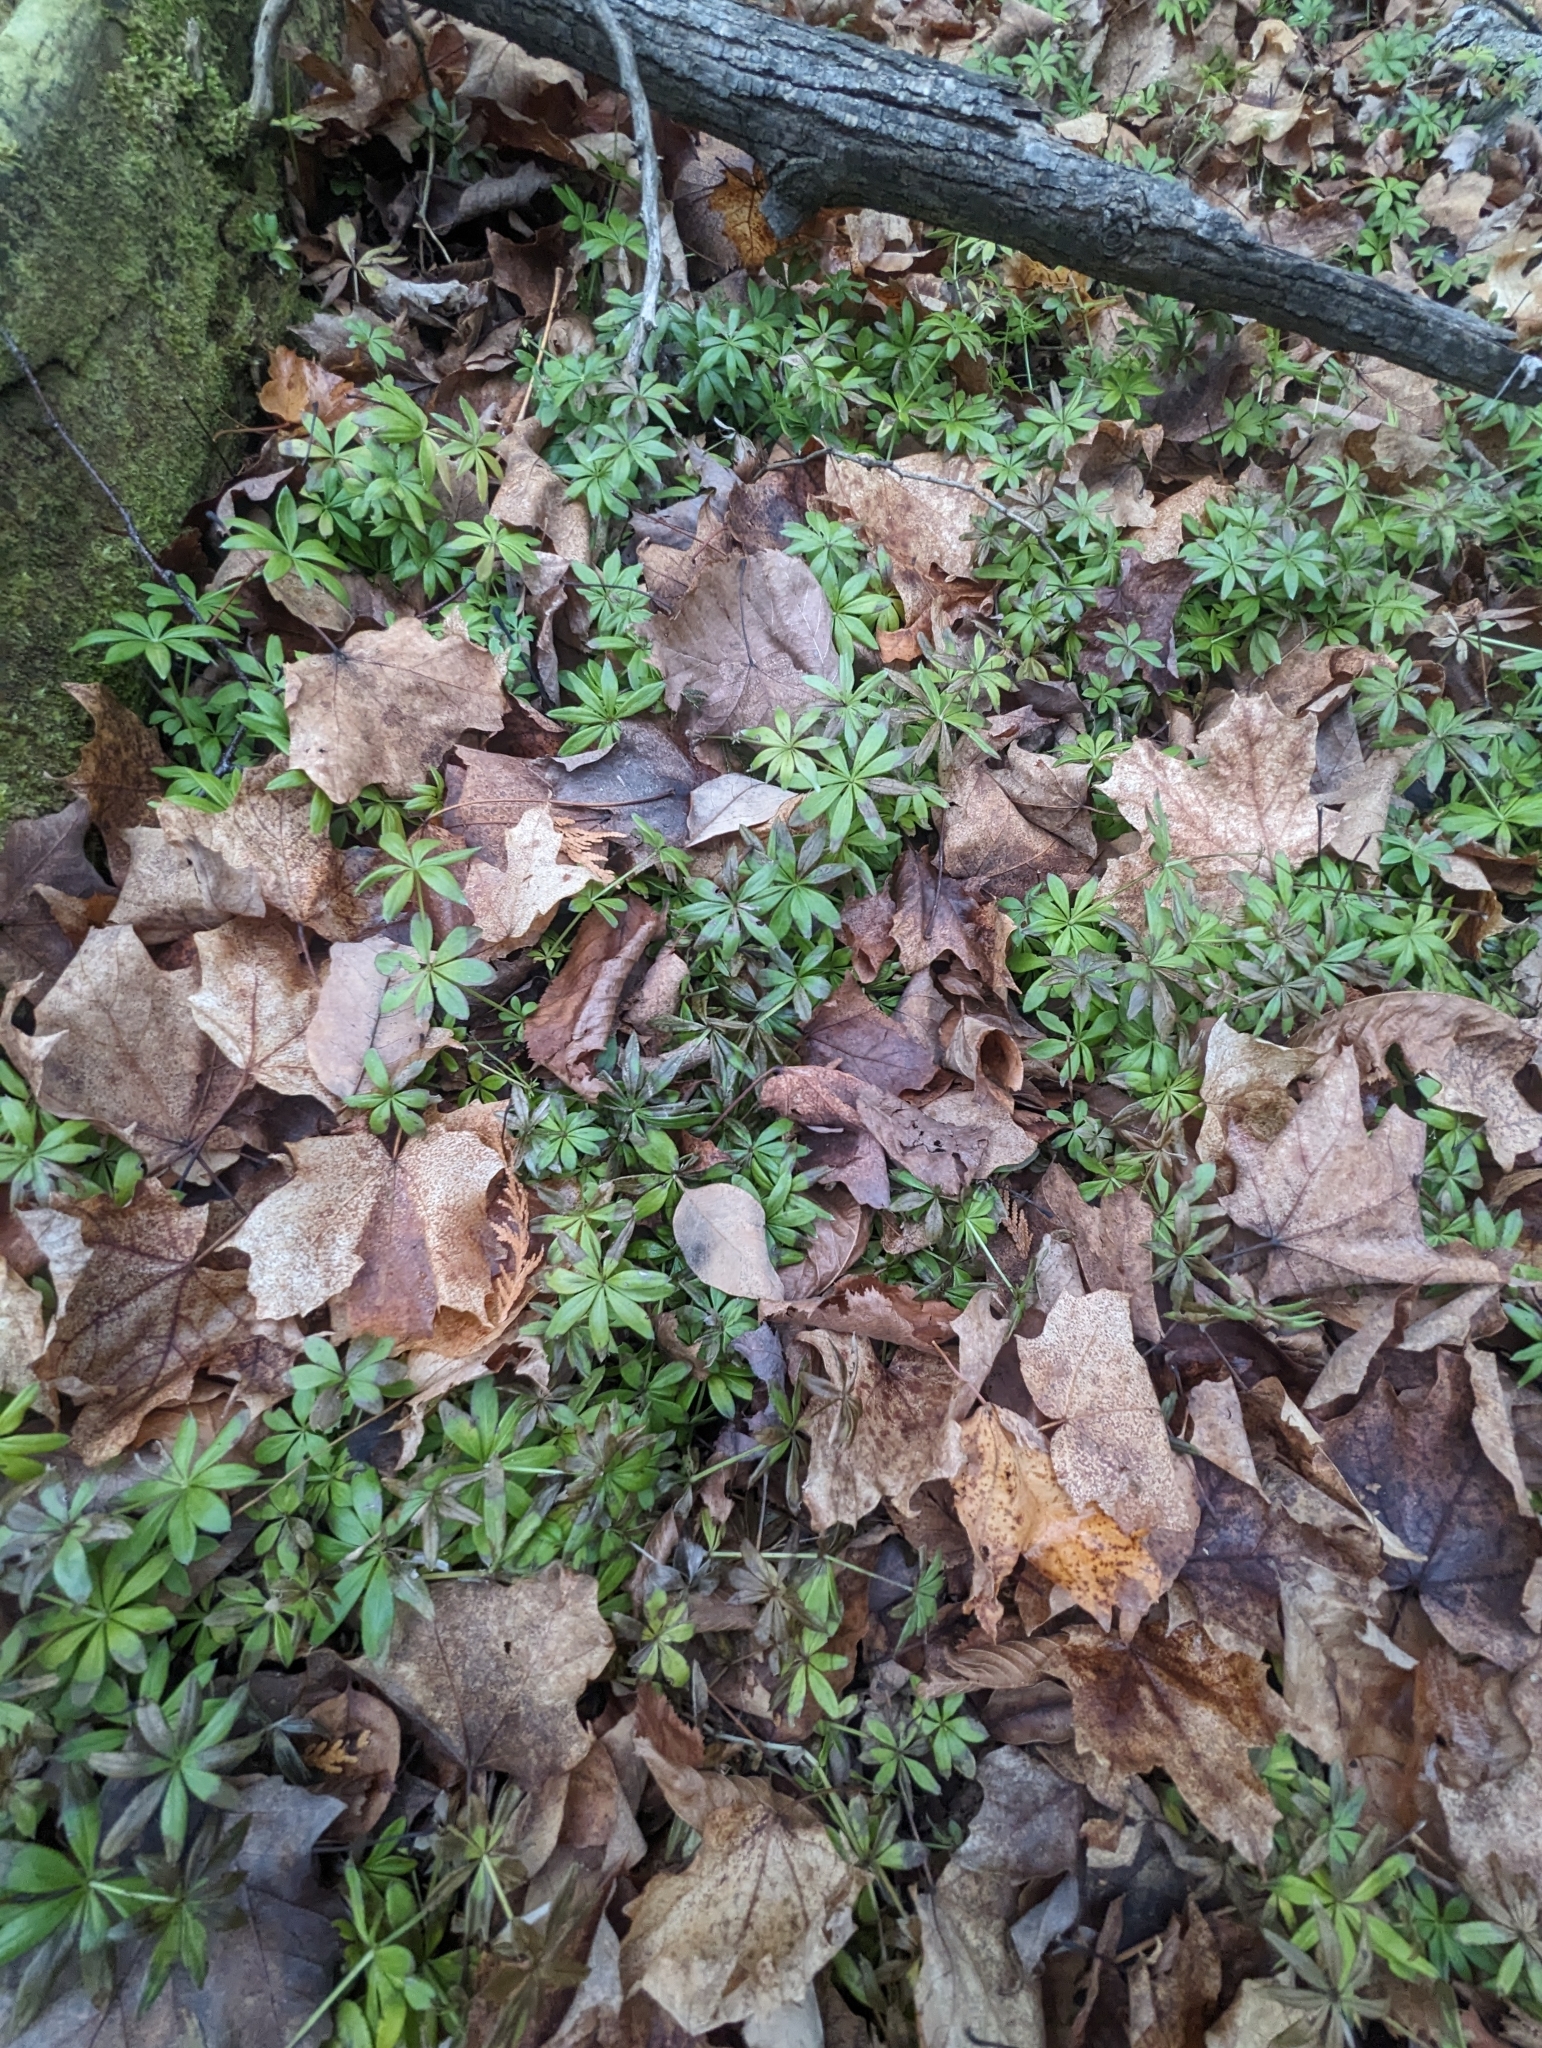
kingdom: Plantae
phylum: Tracheophyta
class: Magnoliopsida
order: Gentianales
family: Rubiaceae
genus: Galium
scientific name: Galium odoratum
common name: Sweet woodruff
